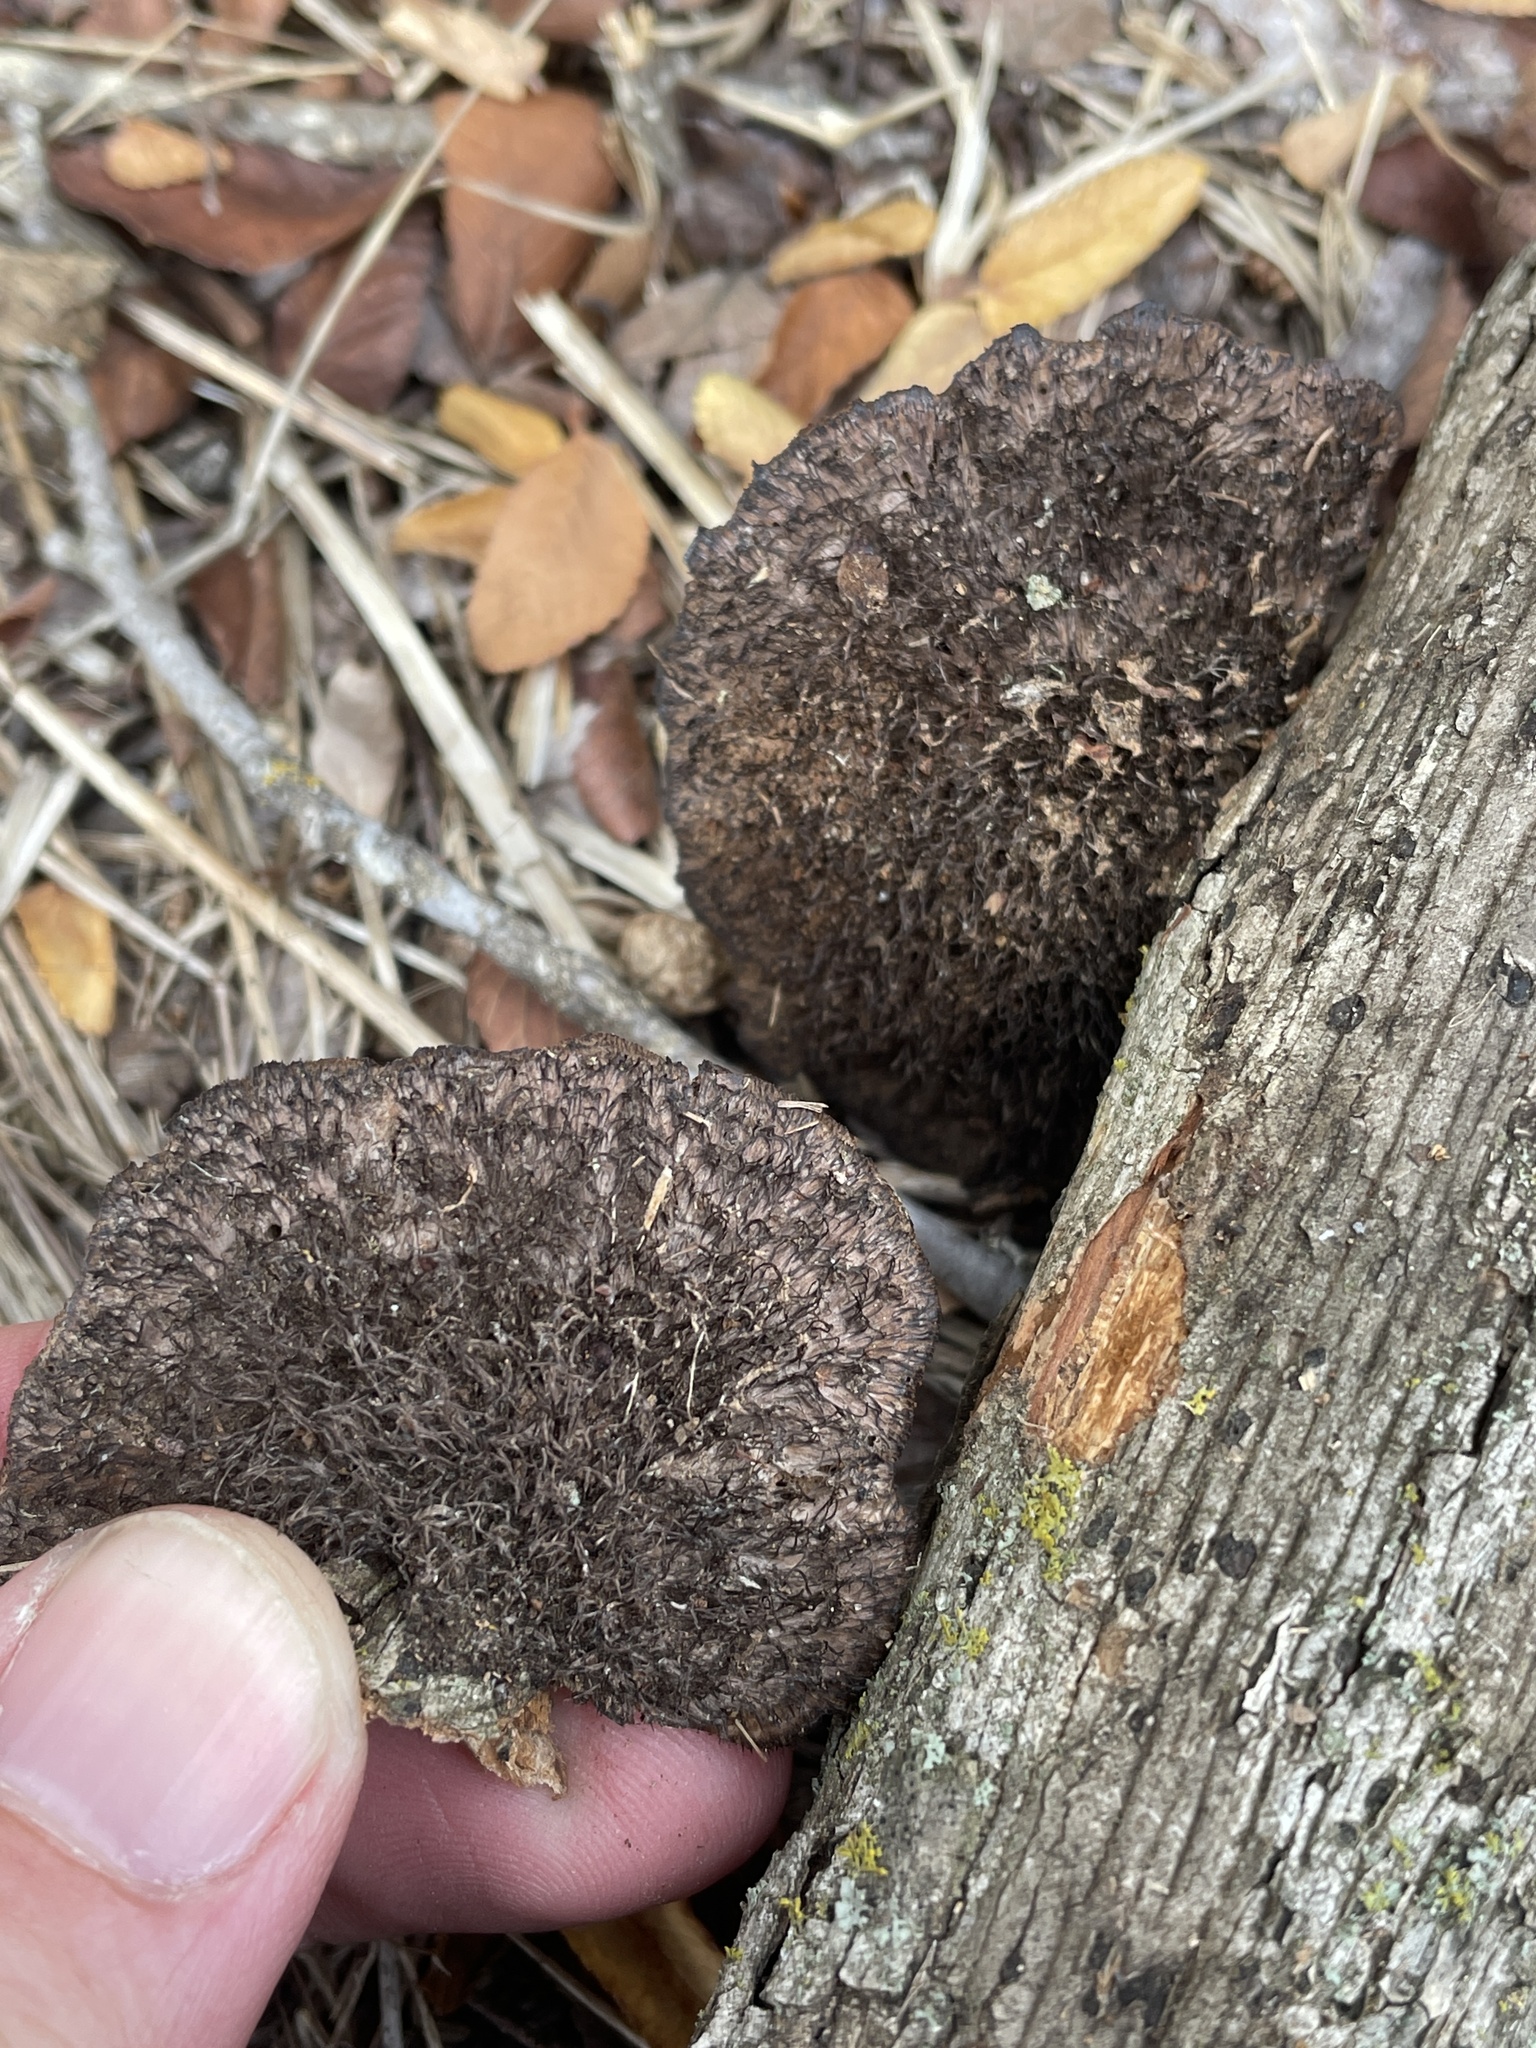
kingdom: Fungi
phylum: Basidiomycota
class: Agaricomycetes
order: Polyporales
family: Cerrenaceae
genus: Cerrena
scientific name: Cerrena hydnoides
